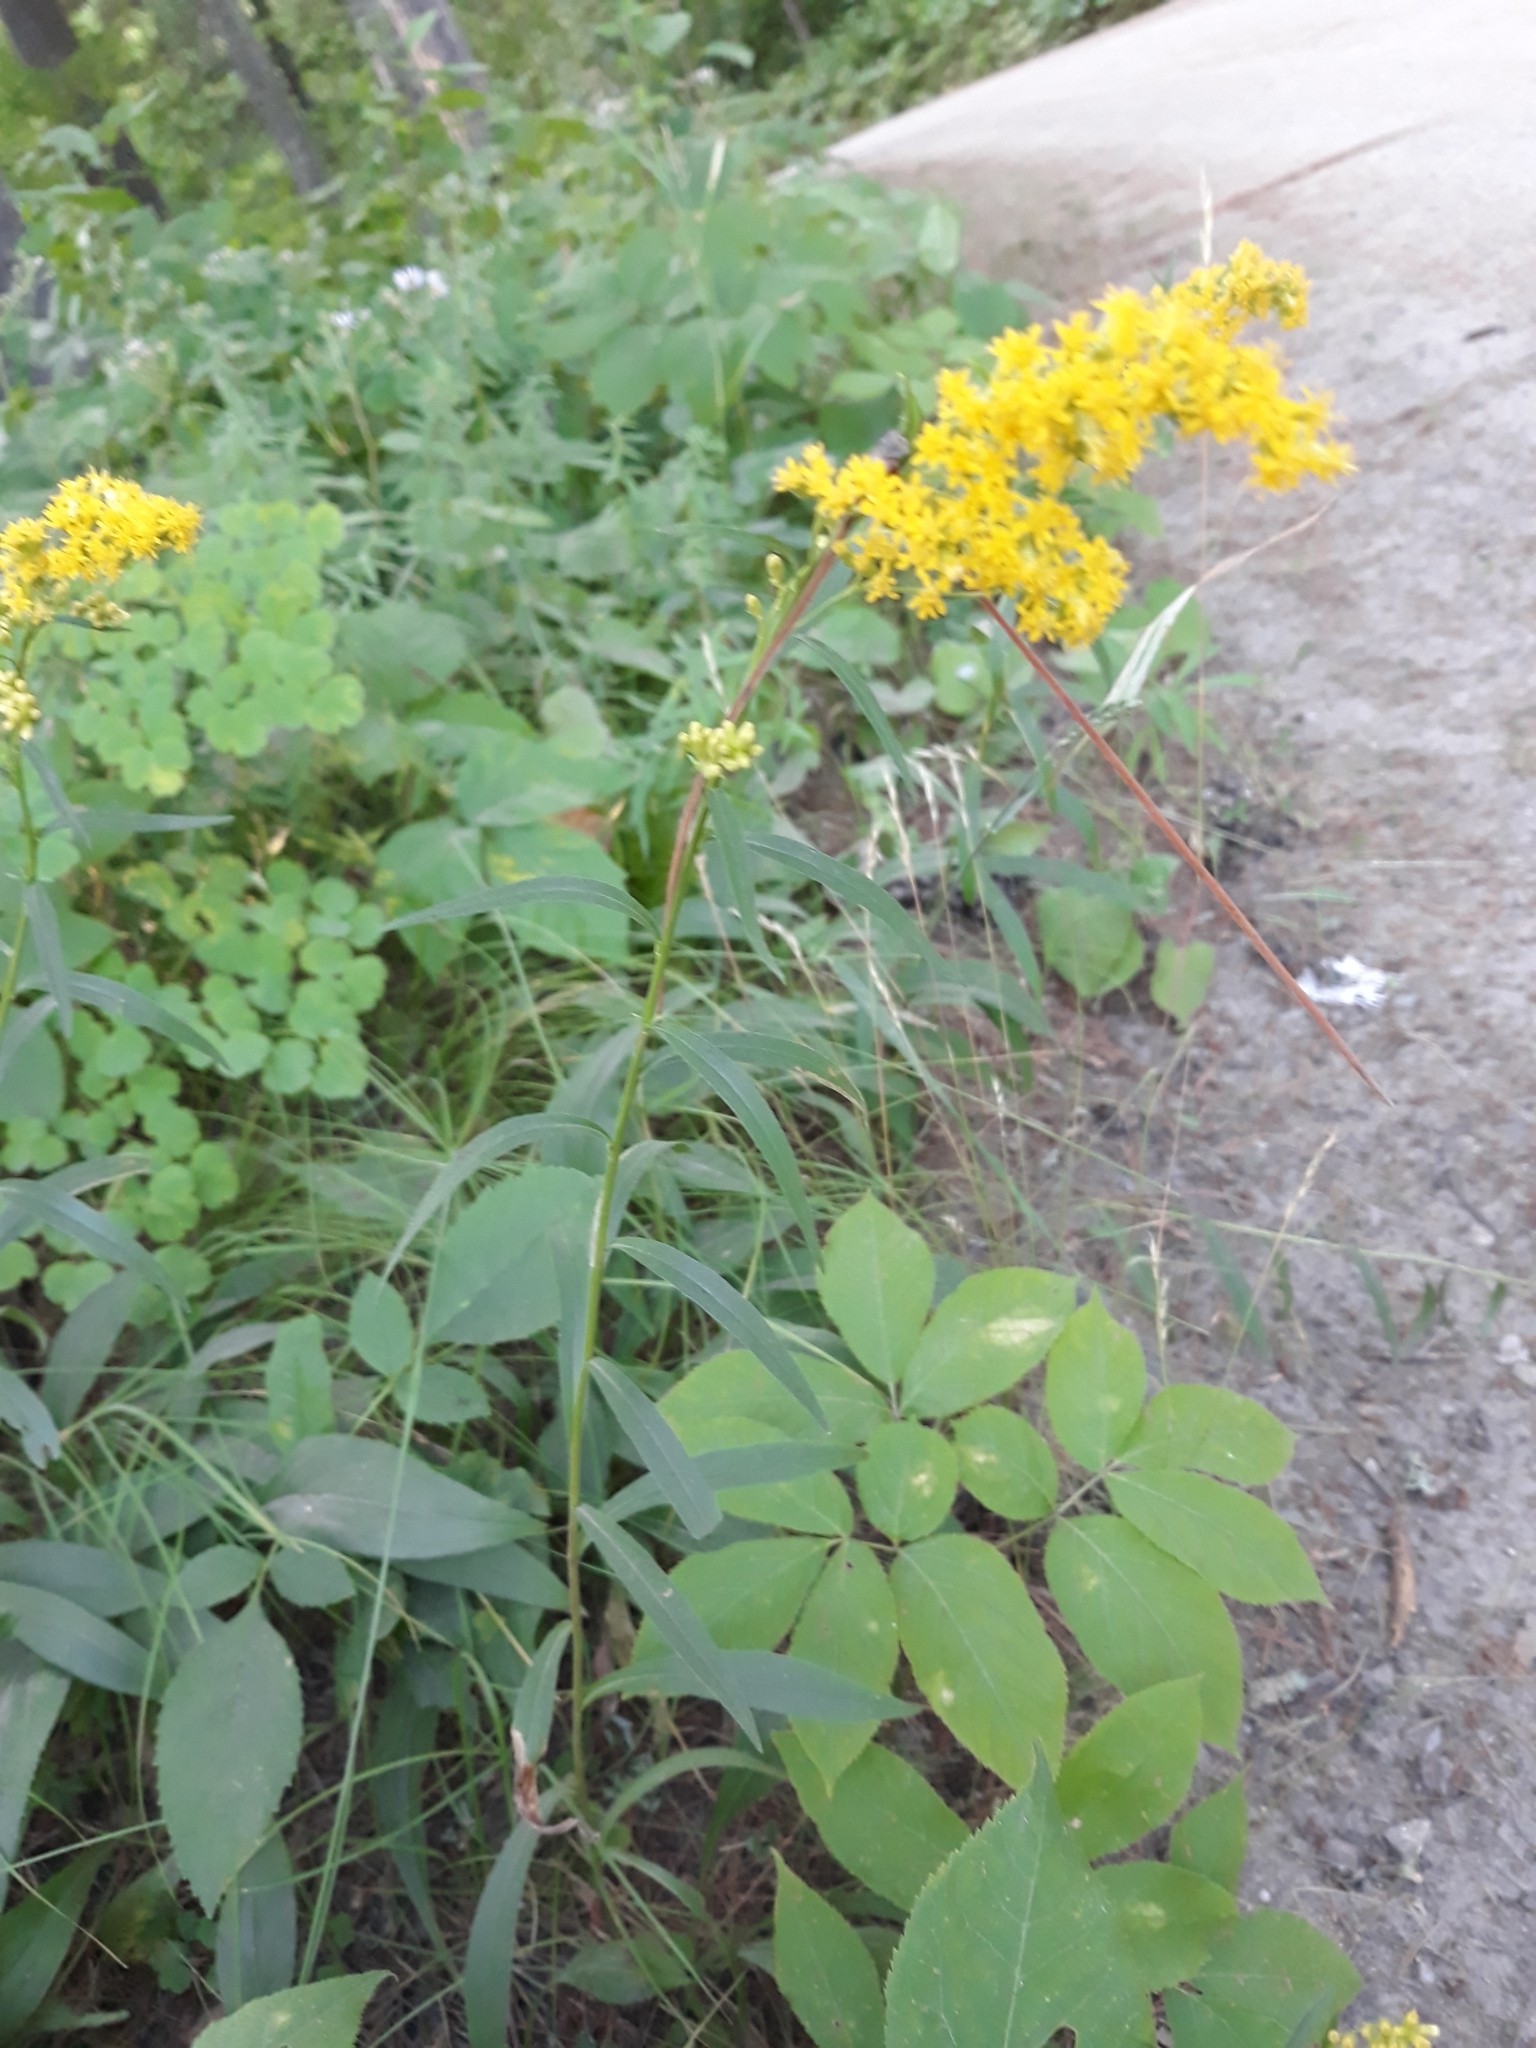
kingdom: Plantae
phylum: Tracheophyta
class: Magnoliopsida
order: Asterales
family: Asteraceae
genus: Solidago
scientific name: Solidago nemoralis
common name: Grey goldenrod
